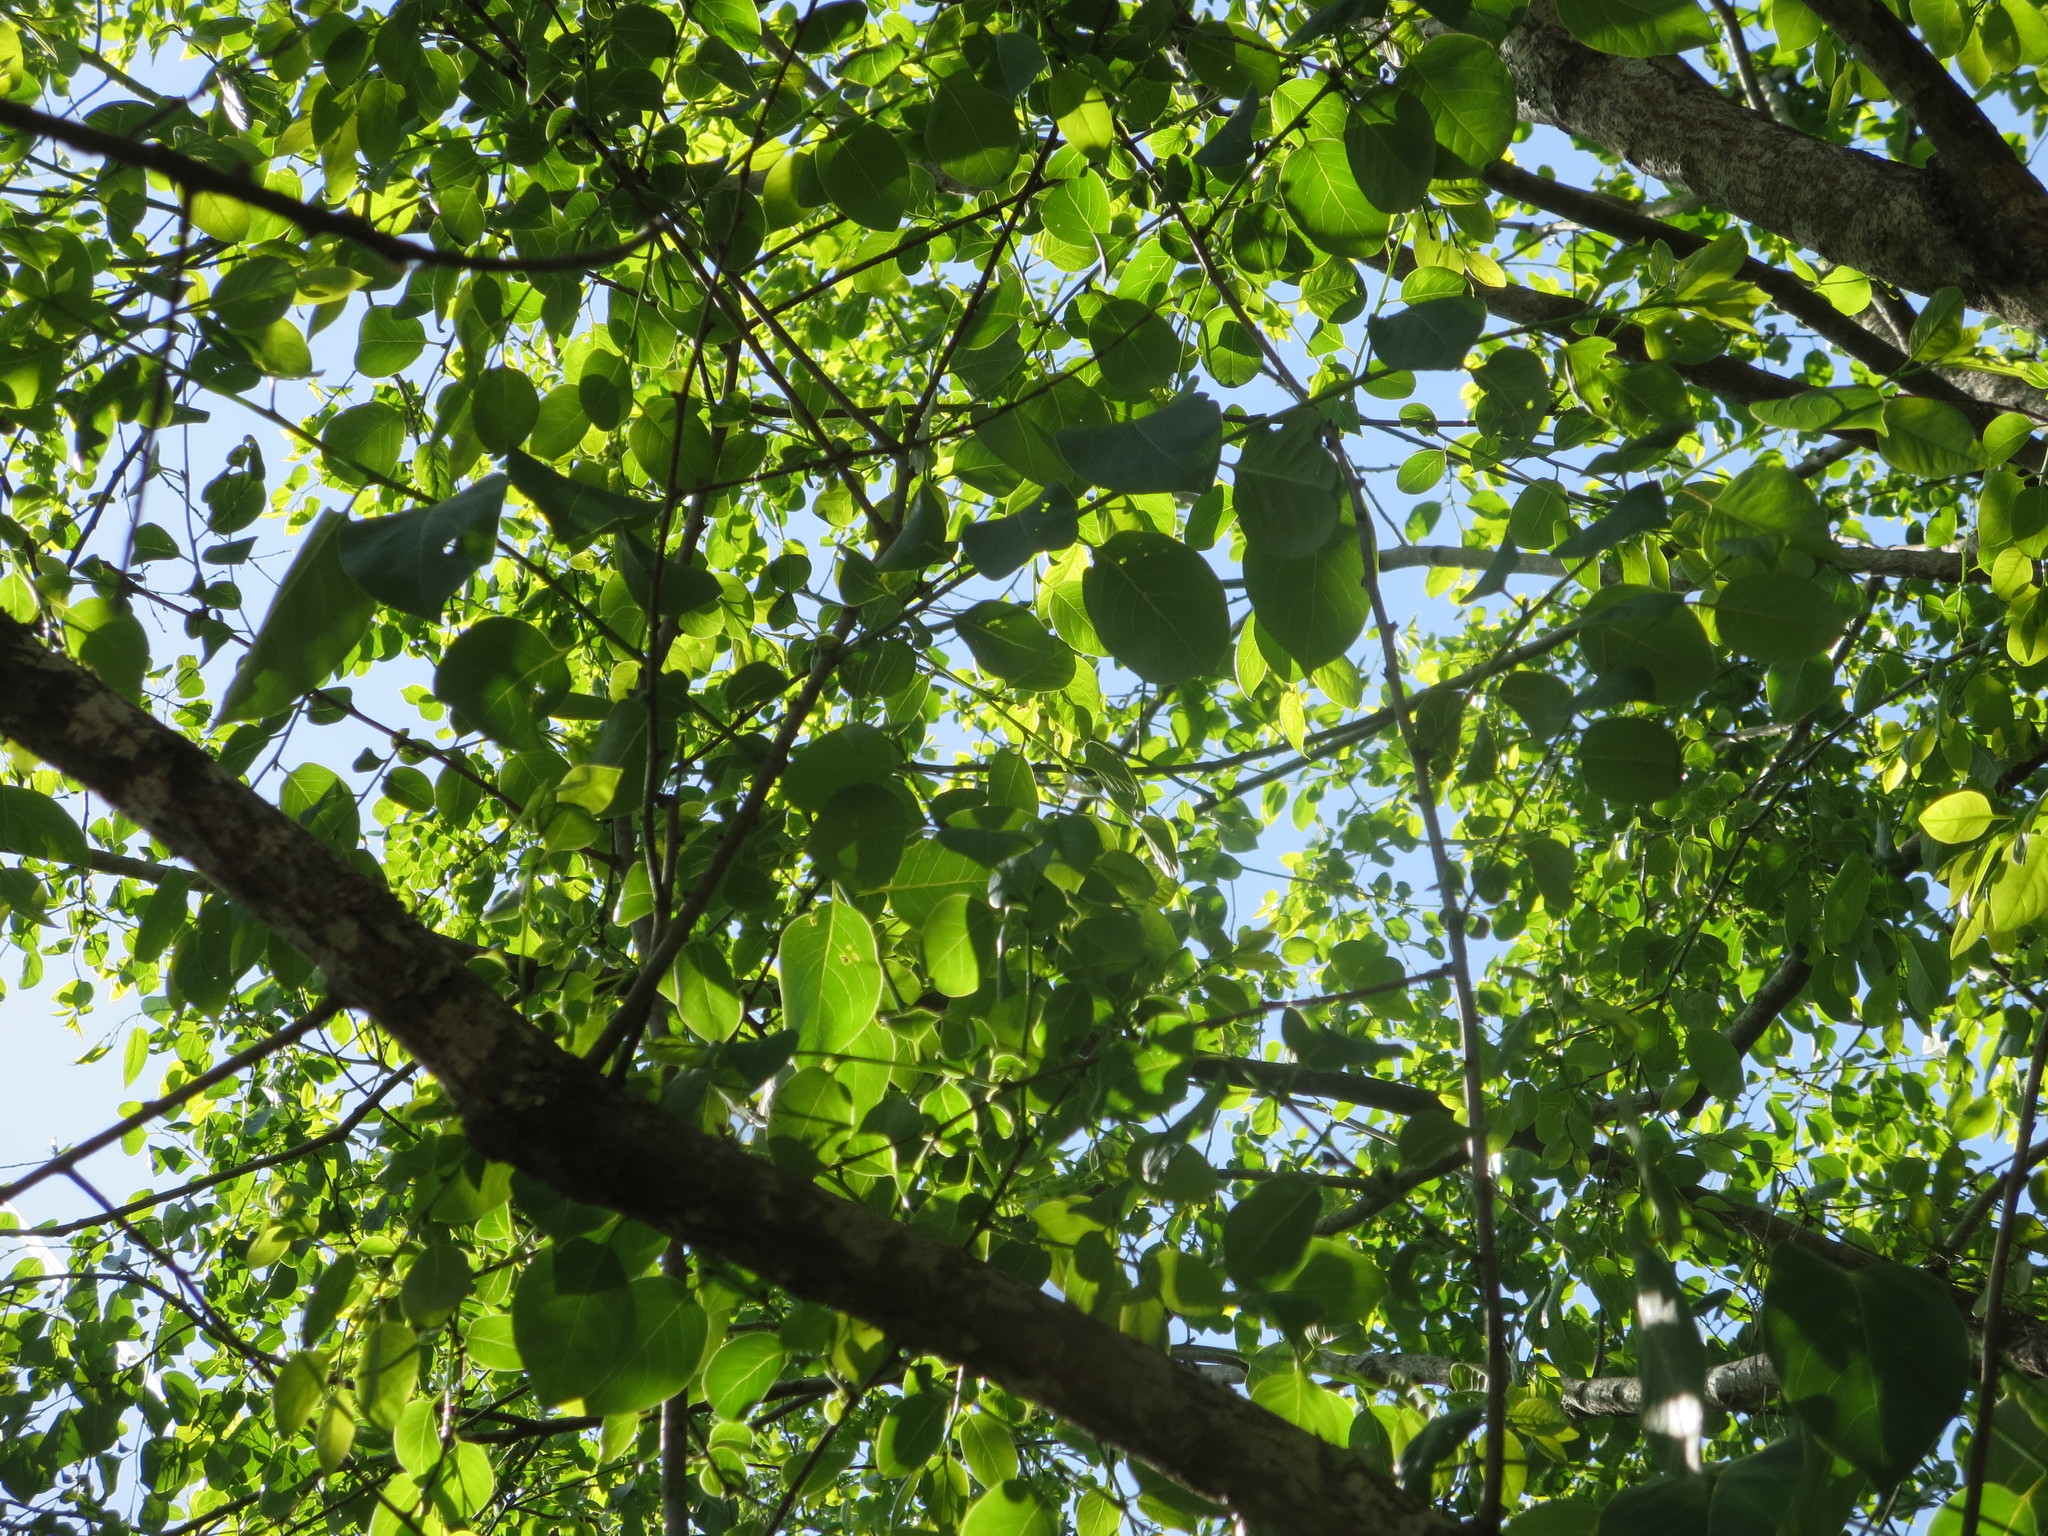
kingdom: Plantae
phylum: Tracheophyta
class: Magnoliopsida
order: Ericales
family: Ebenaceae
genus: Diospyros
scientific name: Diospyros virginiana
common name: Persimmon
